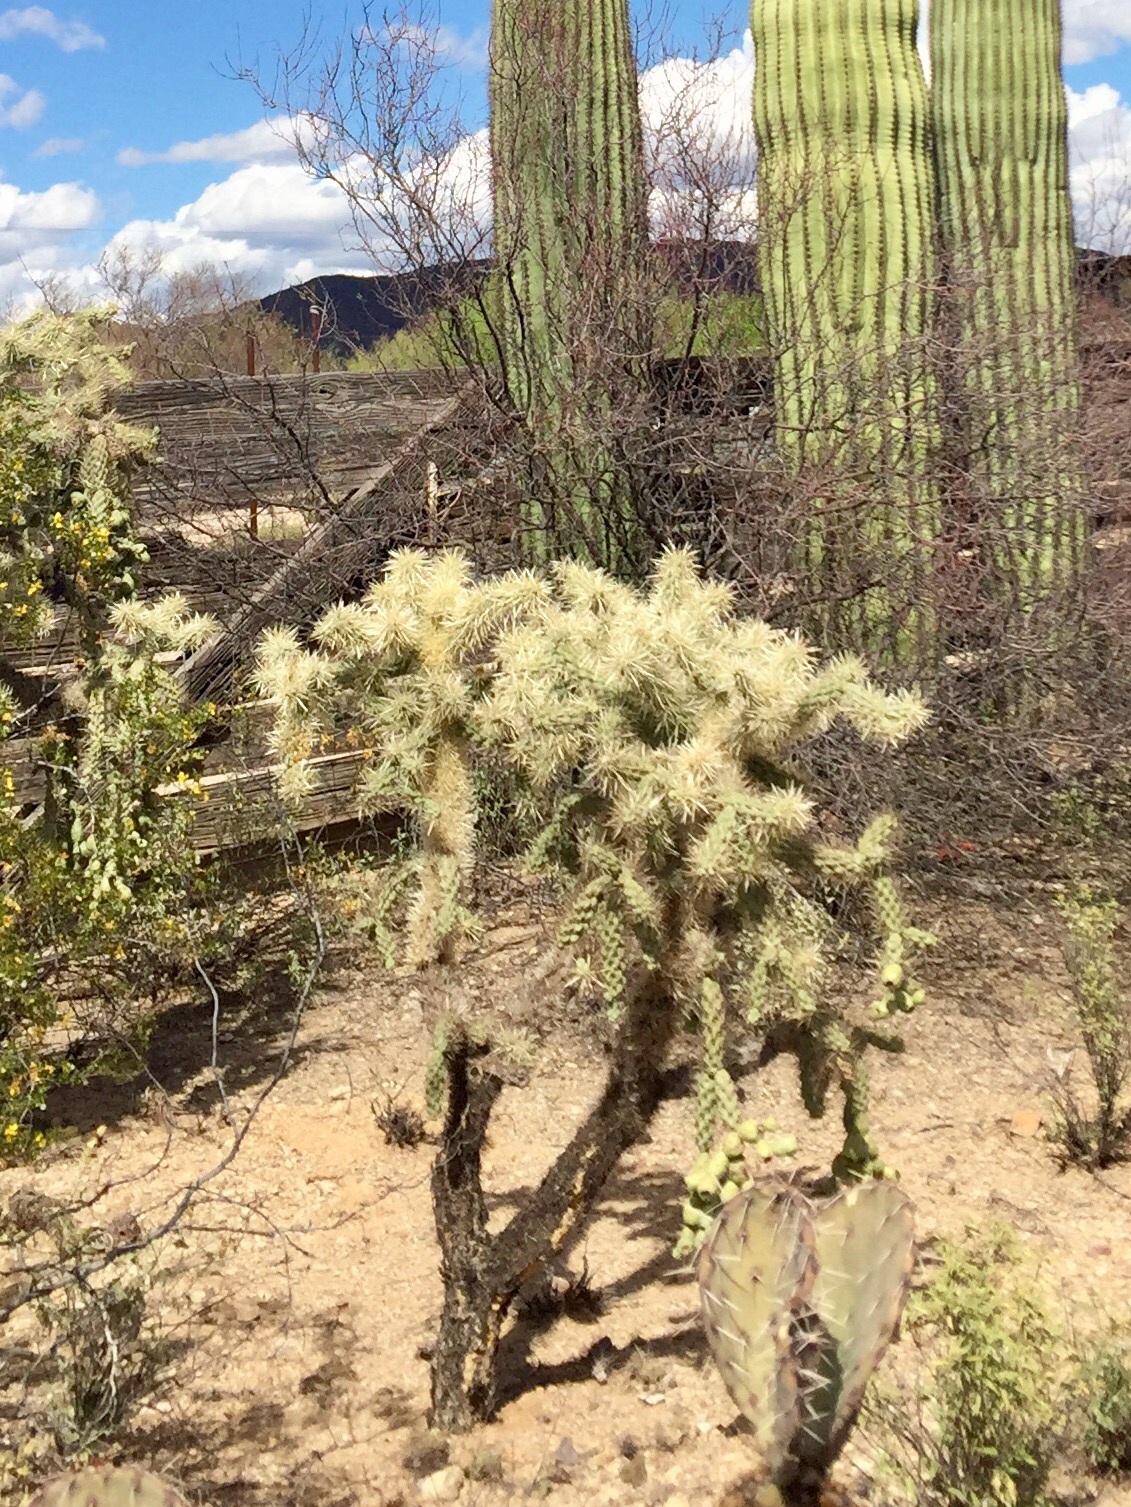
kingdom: Plantae
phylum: Tracheophyta
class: Magnoliopsida
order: Caryophyllales
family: Cactaceae
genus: Cylindropuntia
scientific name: Cylindropuntia fulgida
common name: Jumping cholla
